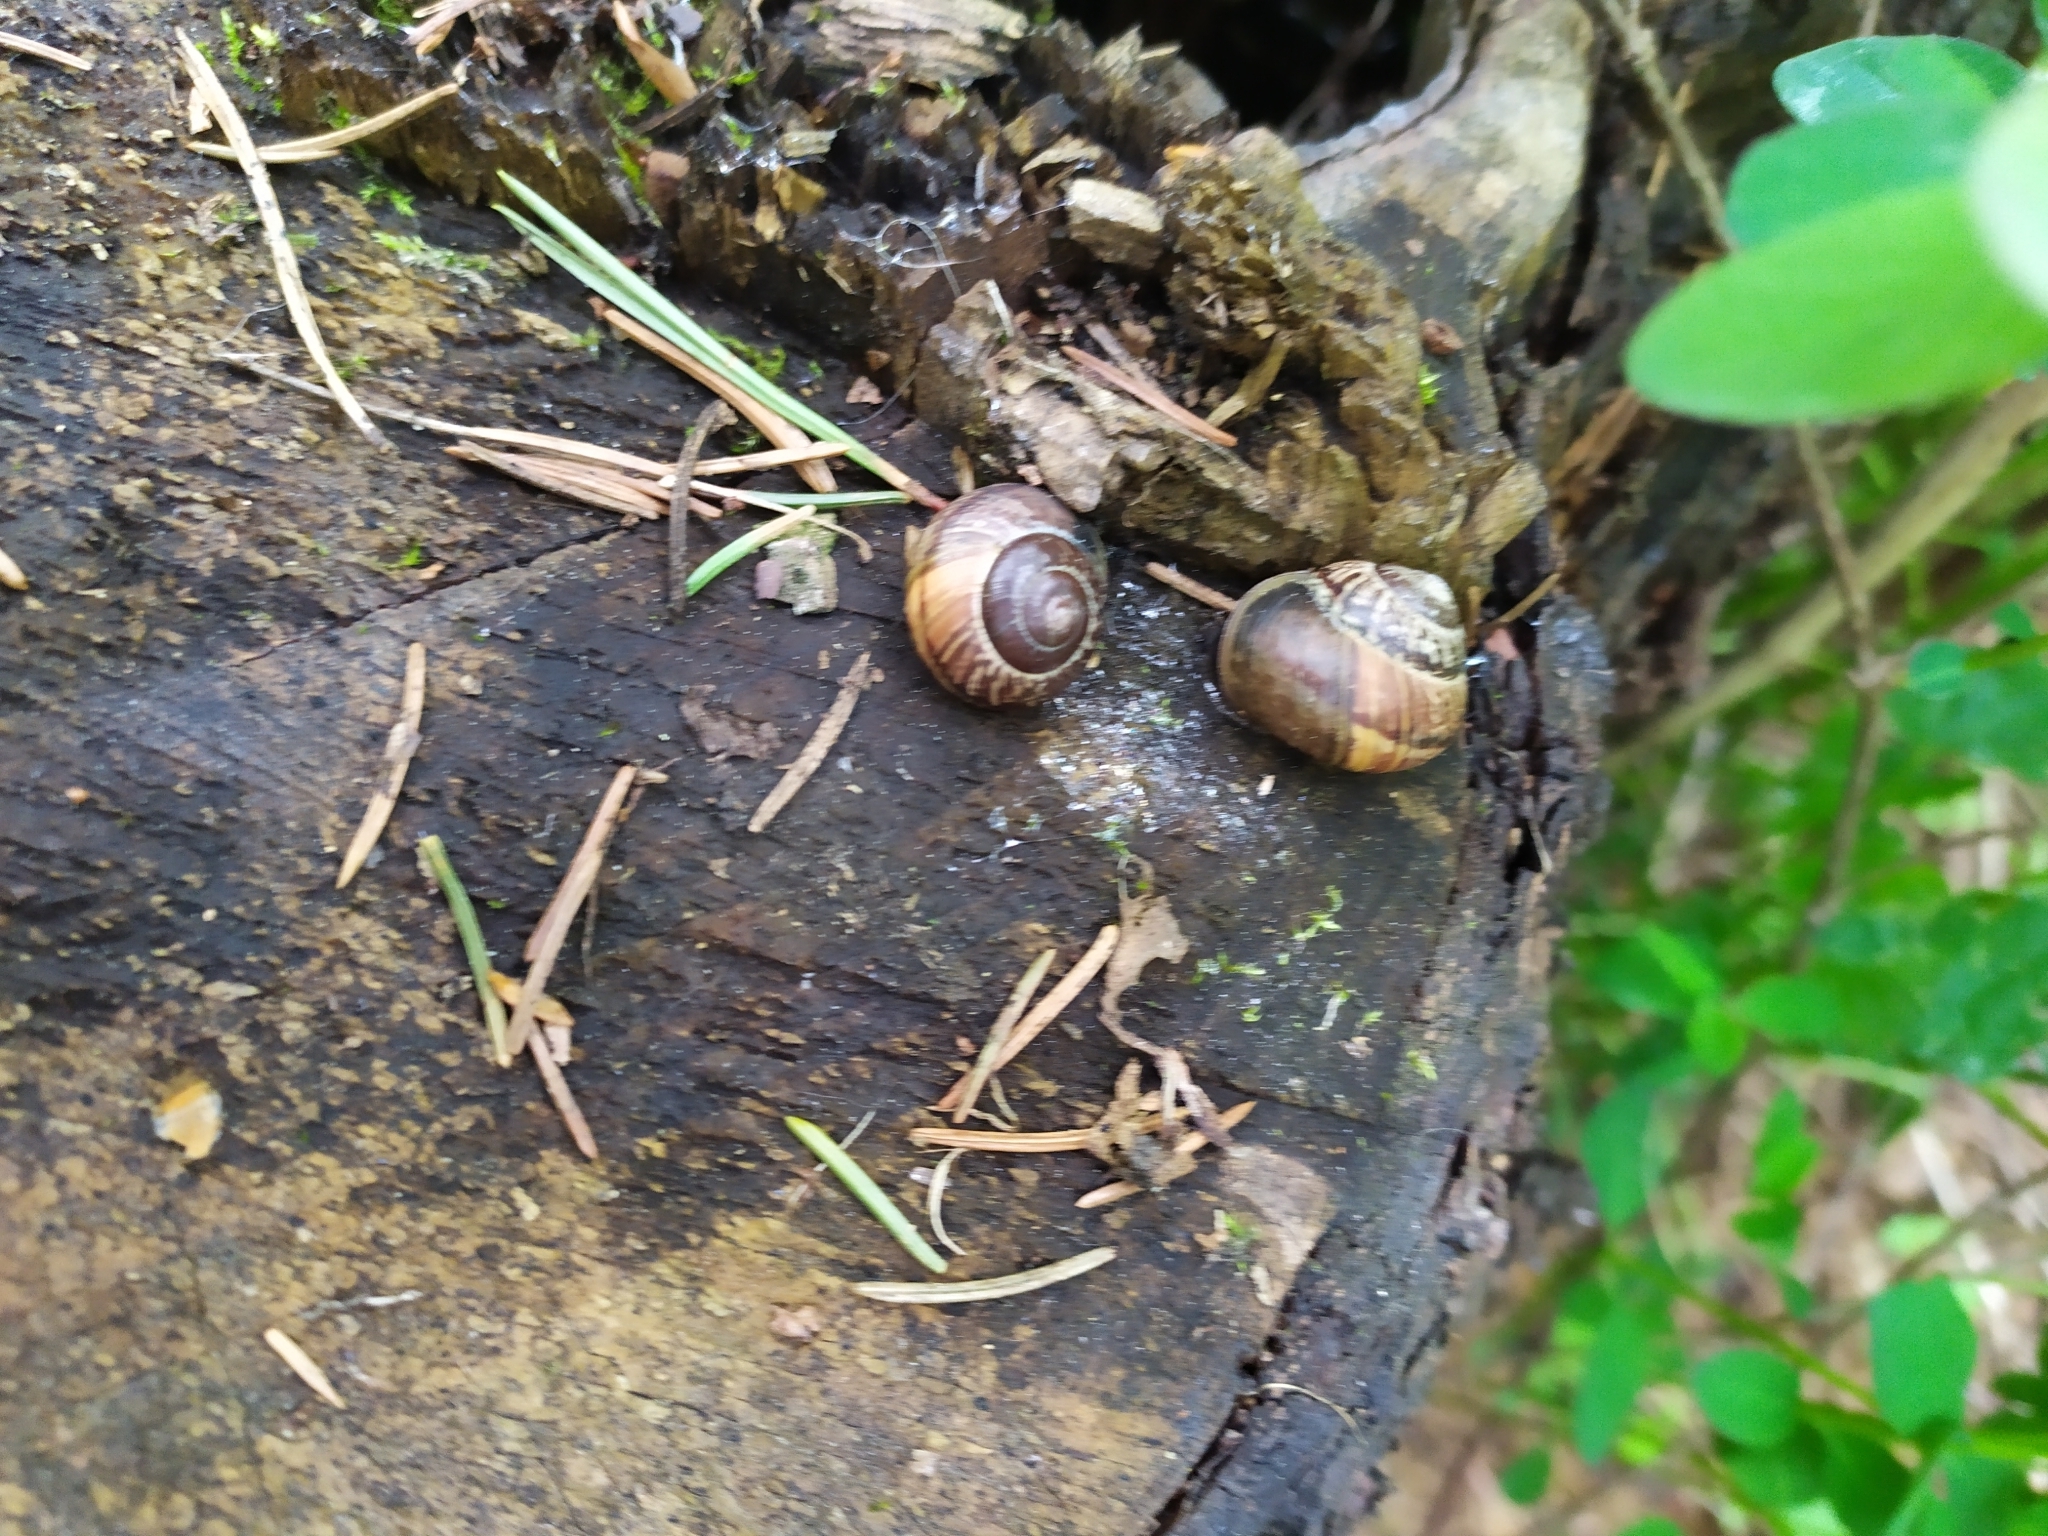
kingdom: Animalia
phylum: Mollusca
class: Gastropoda
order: Stylommatophora
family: Helicidae
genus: Arianta
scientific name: Arianta arbustorum
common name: Copse snail
